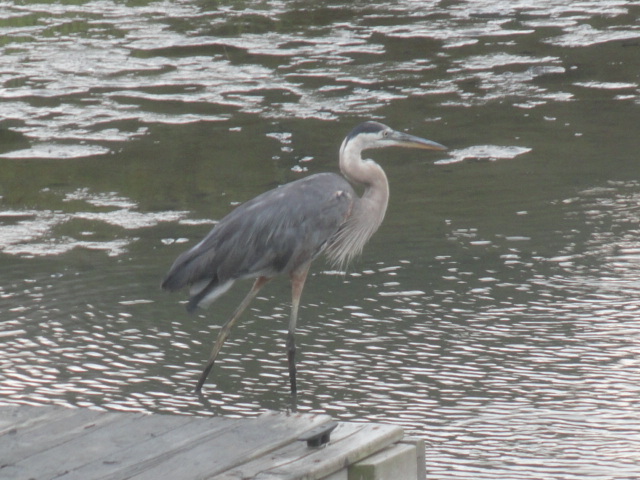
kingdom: Animalia
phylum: Chordata
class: Aves
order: Pelecaniformes
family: Ardeidae
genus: Ardea
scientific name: Ardea herodias
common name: Great blue heron
